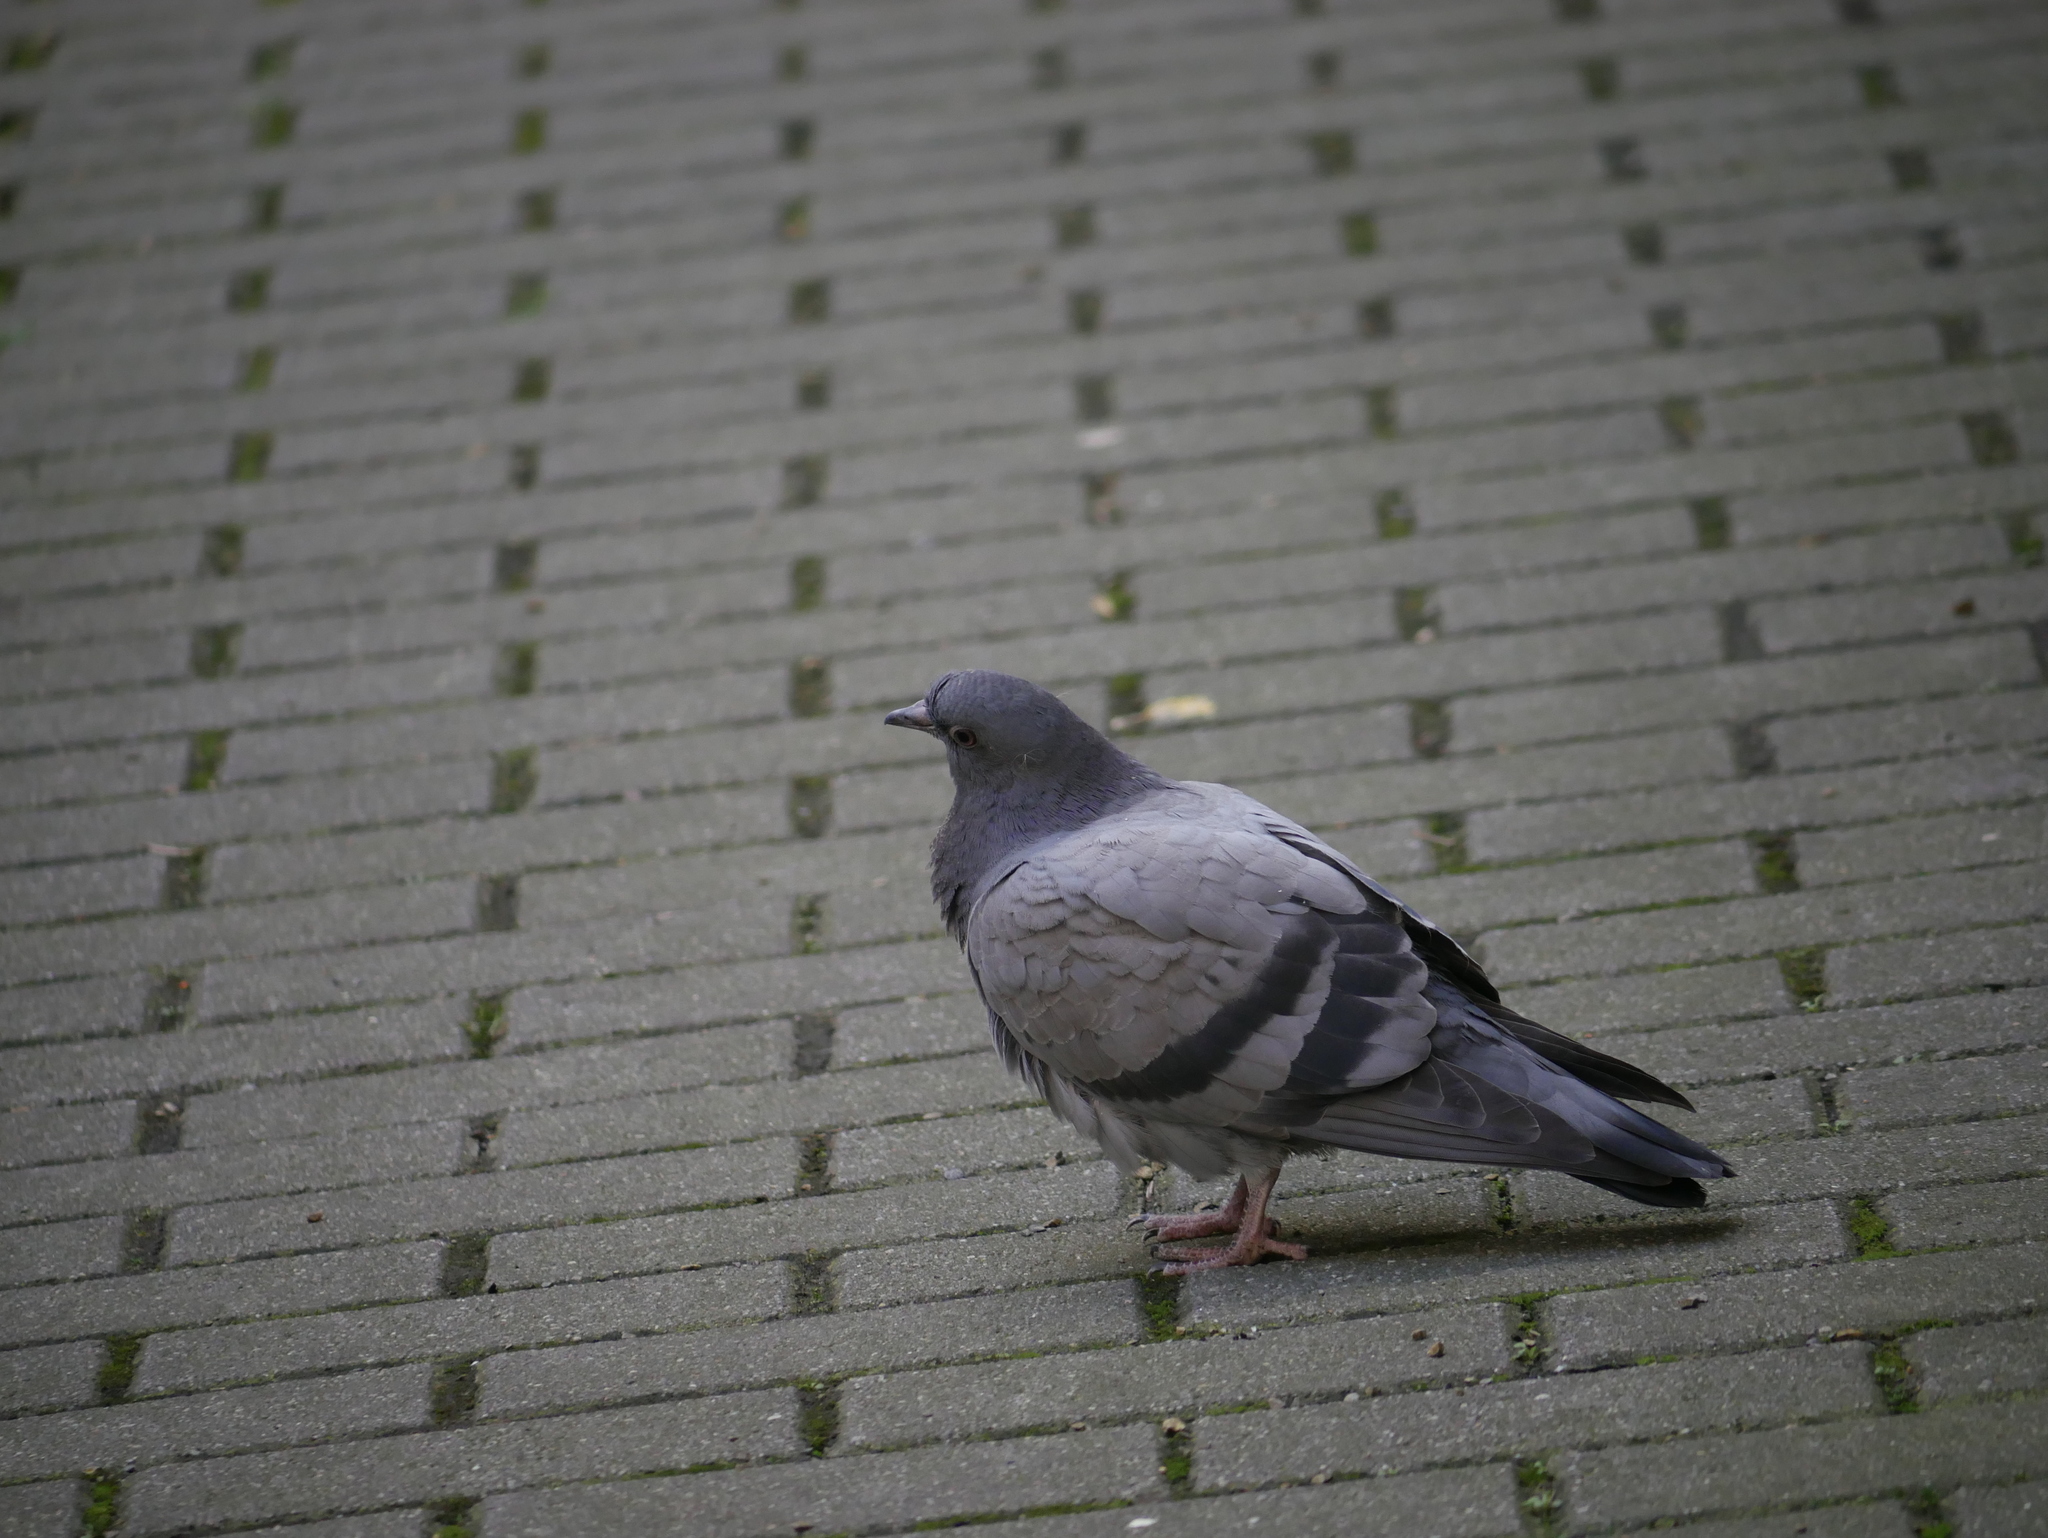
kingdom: Animalia
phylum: Chordata
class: Aves
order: Columbiformes
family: Columbidae
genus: Columba
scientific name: Columba livia
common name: Rock pigeon
